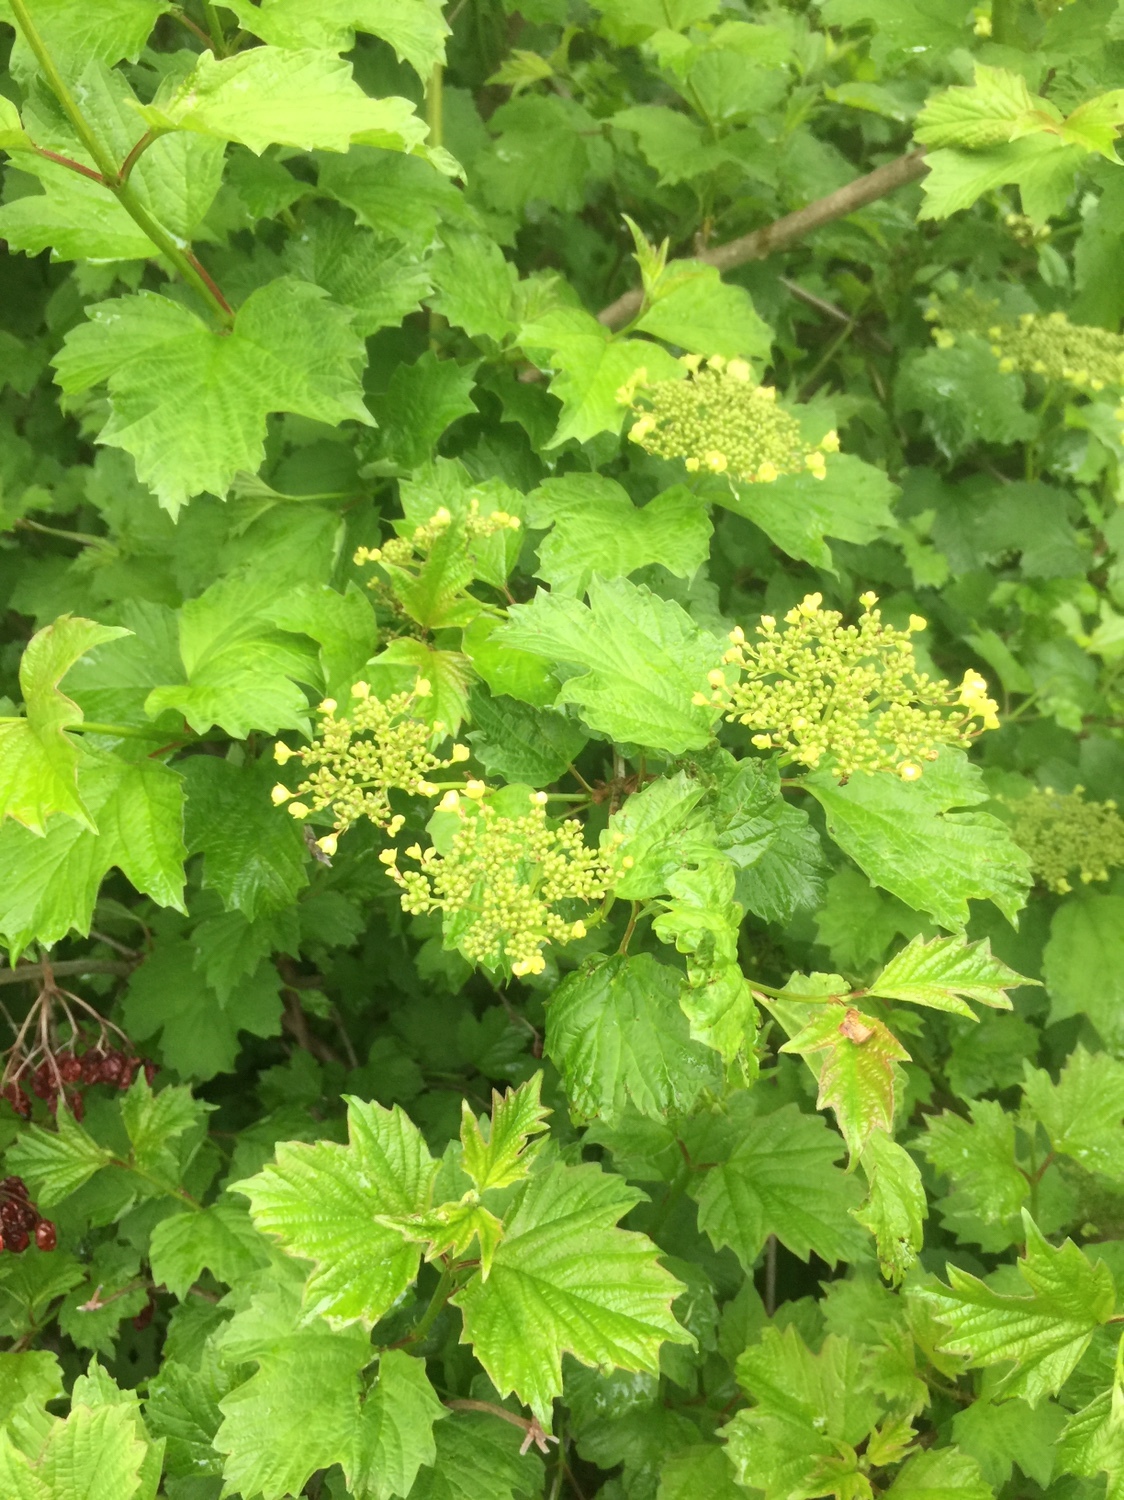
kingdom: Plantae
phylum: Tracheophyta
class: Magnoliopsida
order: Dipsacales
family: Viburnaceae
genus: Viburnum
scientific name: Viburnum opulus
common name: Guelder-rose
